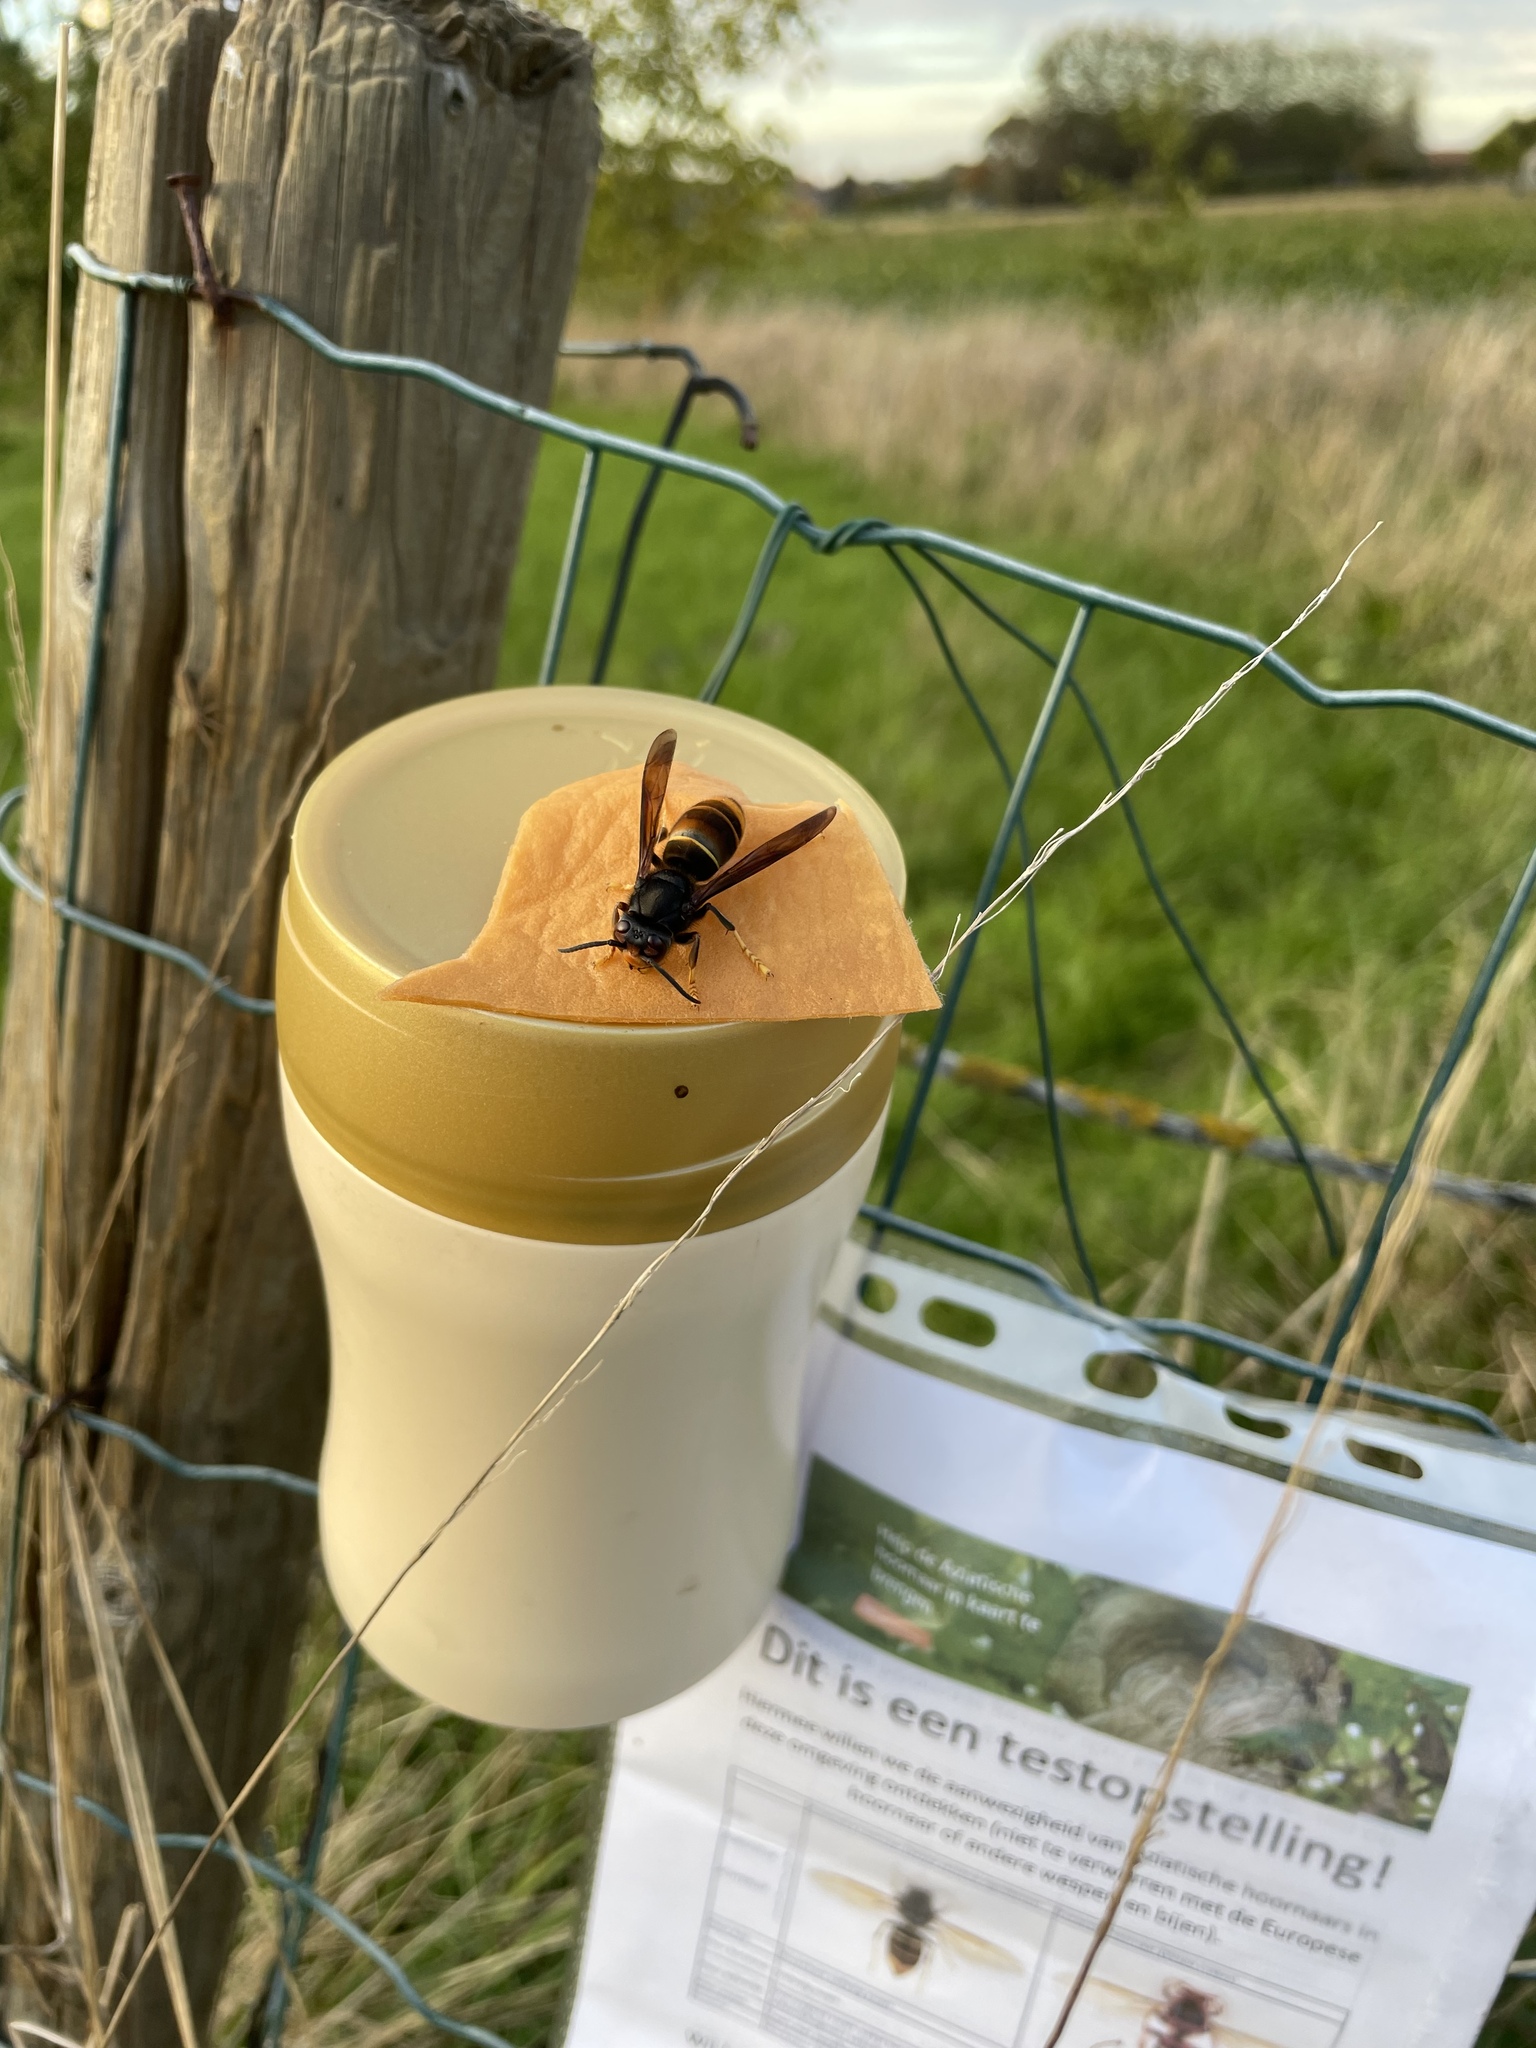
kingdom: Animalia
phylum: Arthropoda
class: Insecta
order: Hymenoptera
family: Vespidae
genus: Vespa
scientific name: Vespa velutina
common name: Asian hornet
